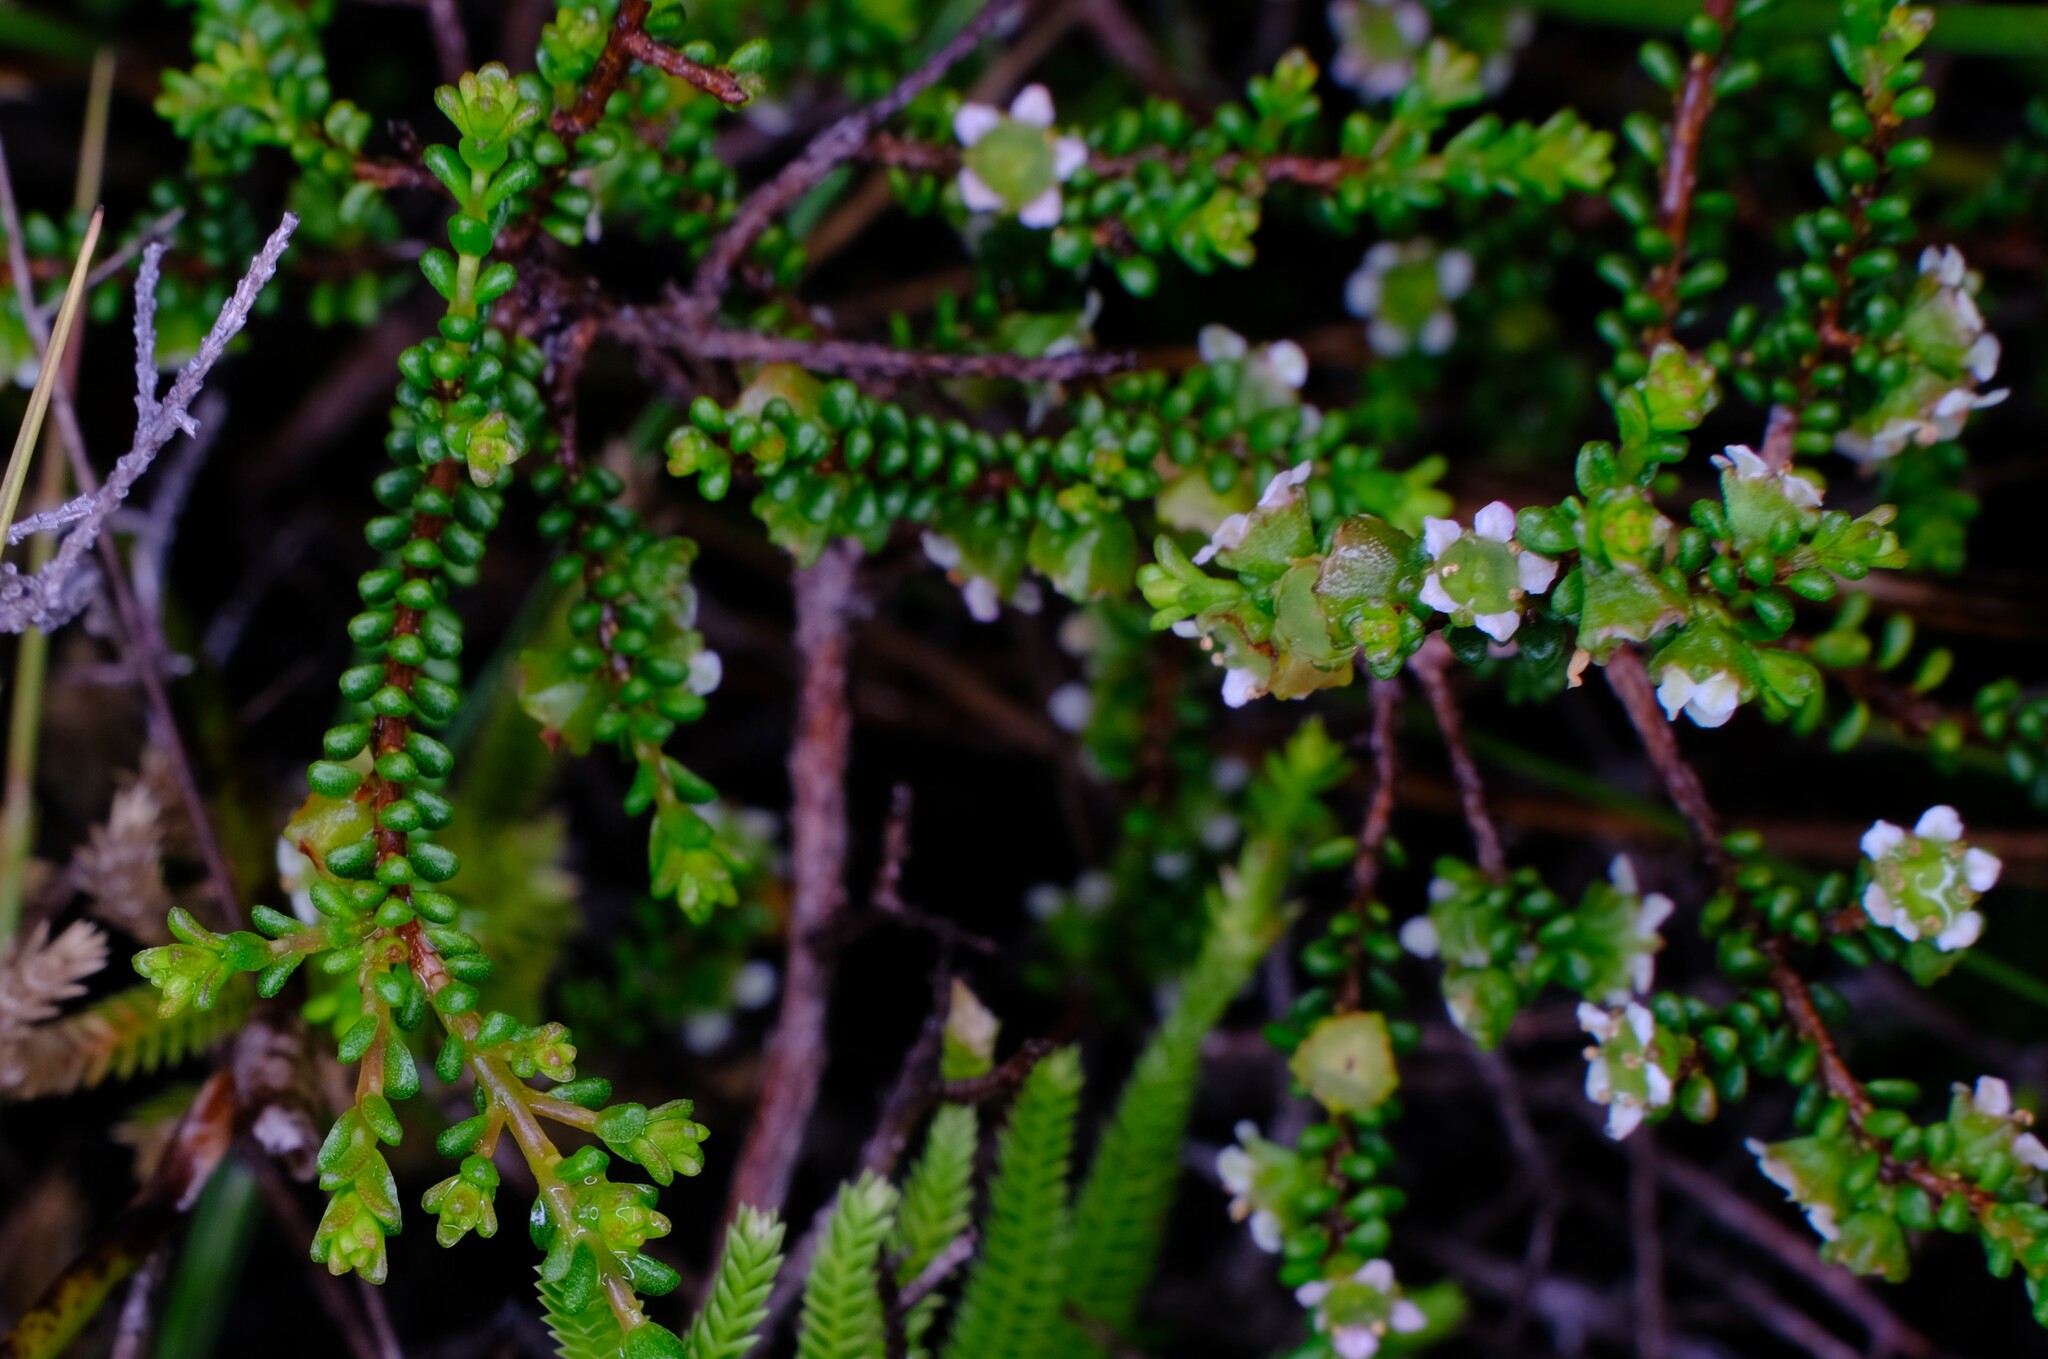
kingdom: Plantae
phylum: Tracheophyta
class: Magnoliopsida
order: Myrtales
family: Myrtaceae
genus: Ochrosperma
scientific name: Ochrosperma citriodorum
